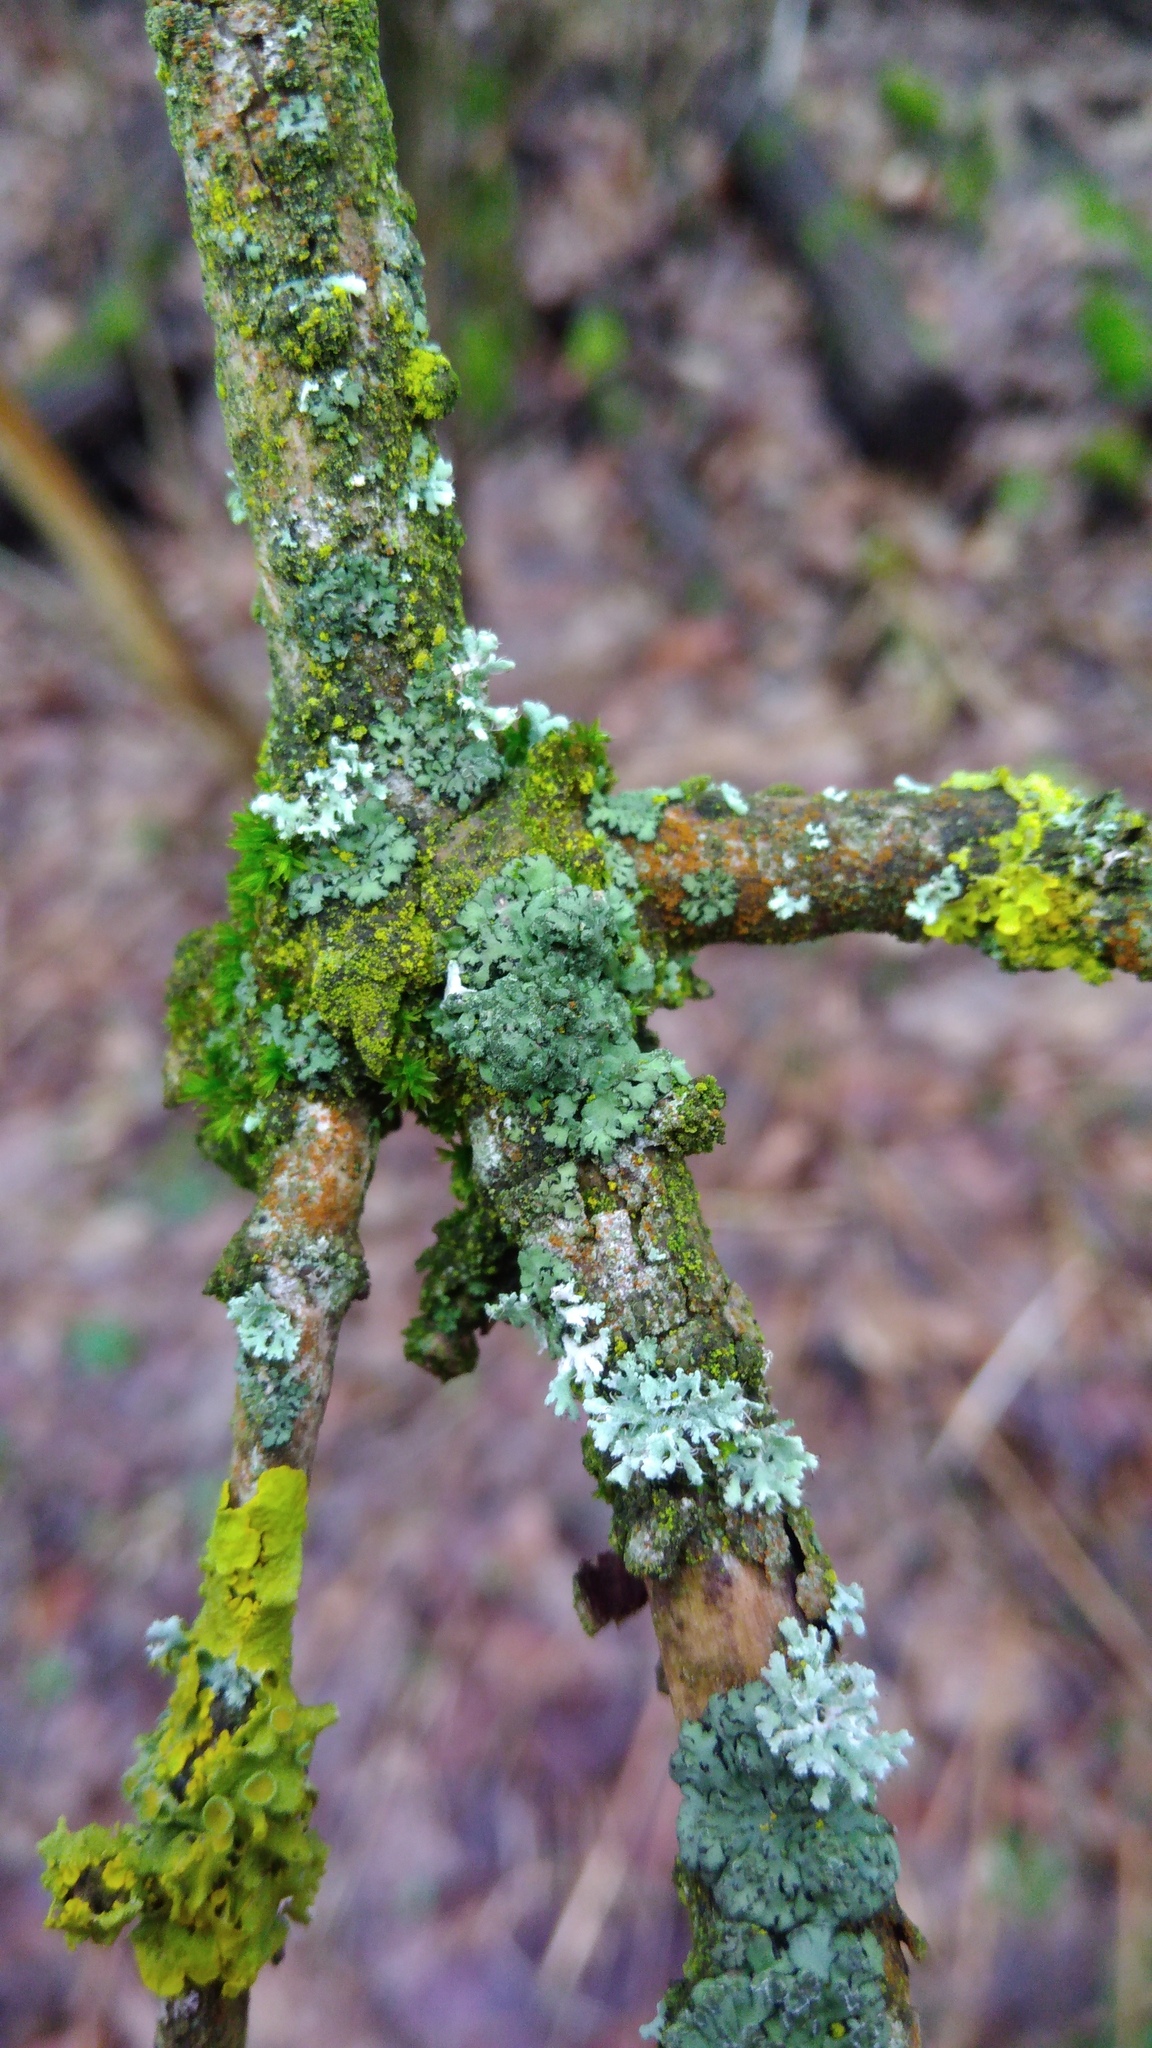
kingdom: Fungi
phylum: Ascomycota
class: Lecanoromycetes
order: Caliciales
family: Physciaceae
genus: Phaeophyscia
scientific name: Phaeophyscia orbicularis
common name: Mealy shadow lichen
